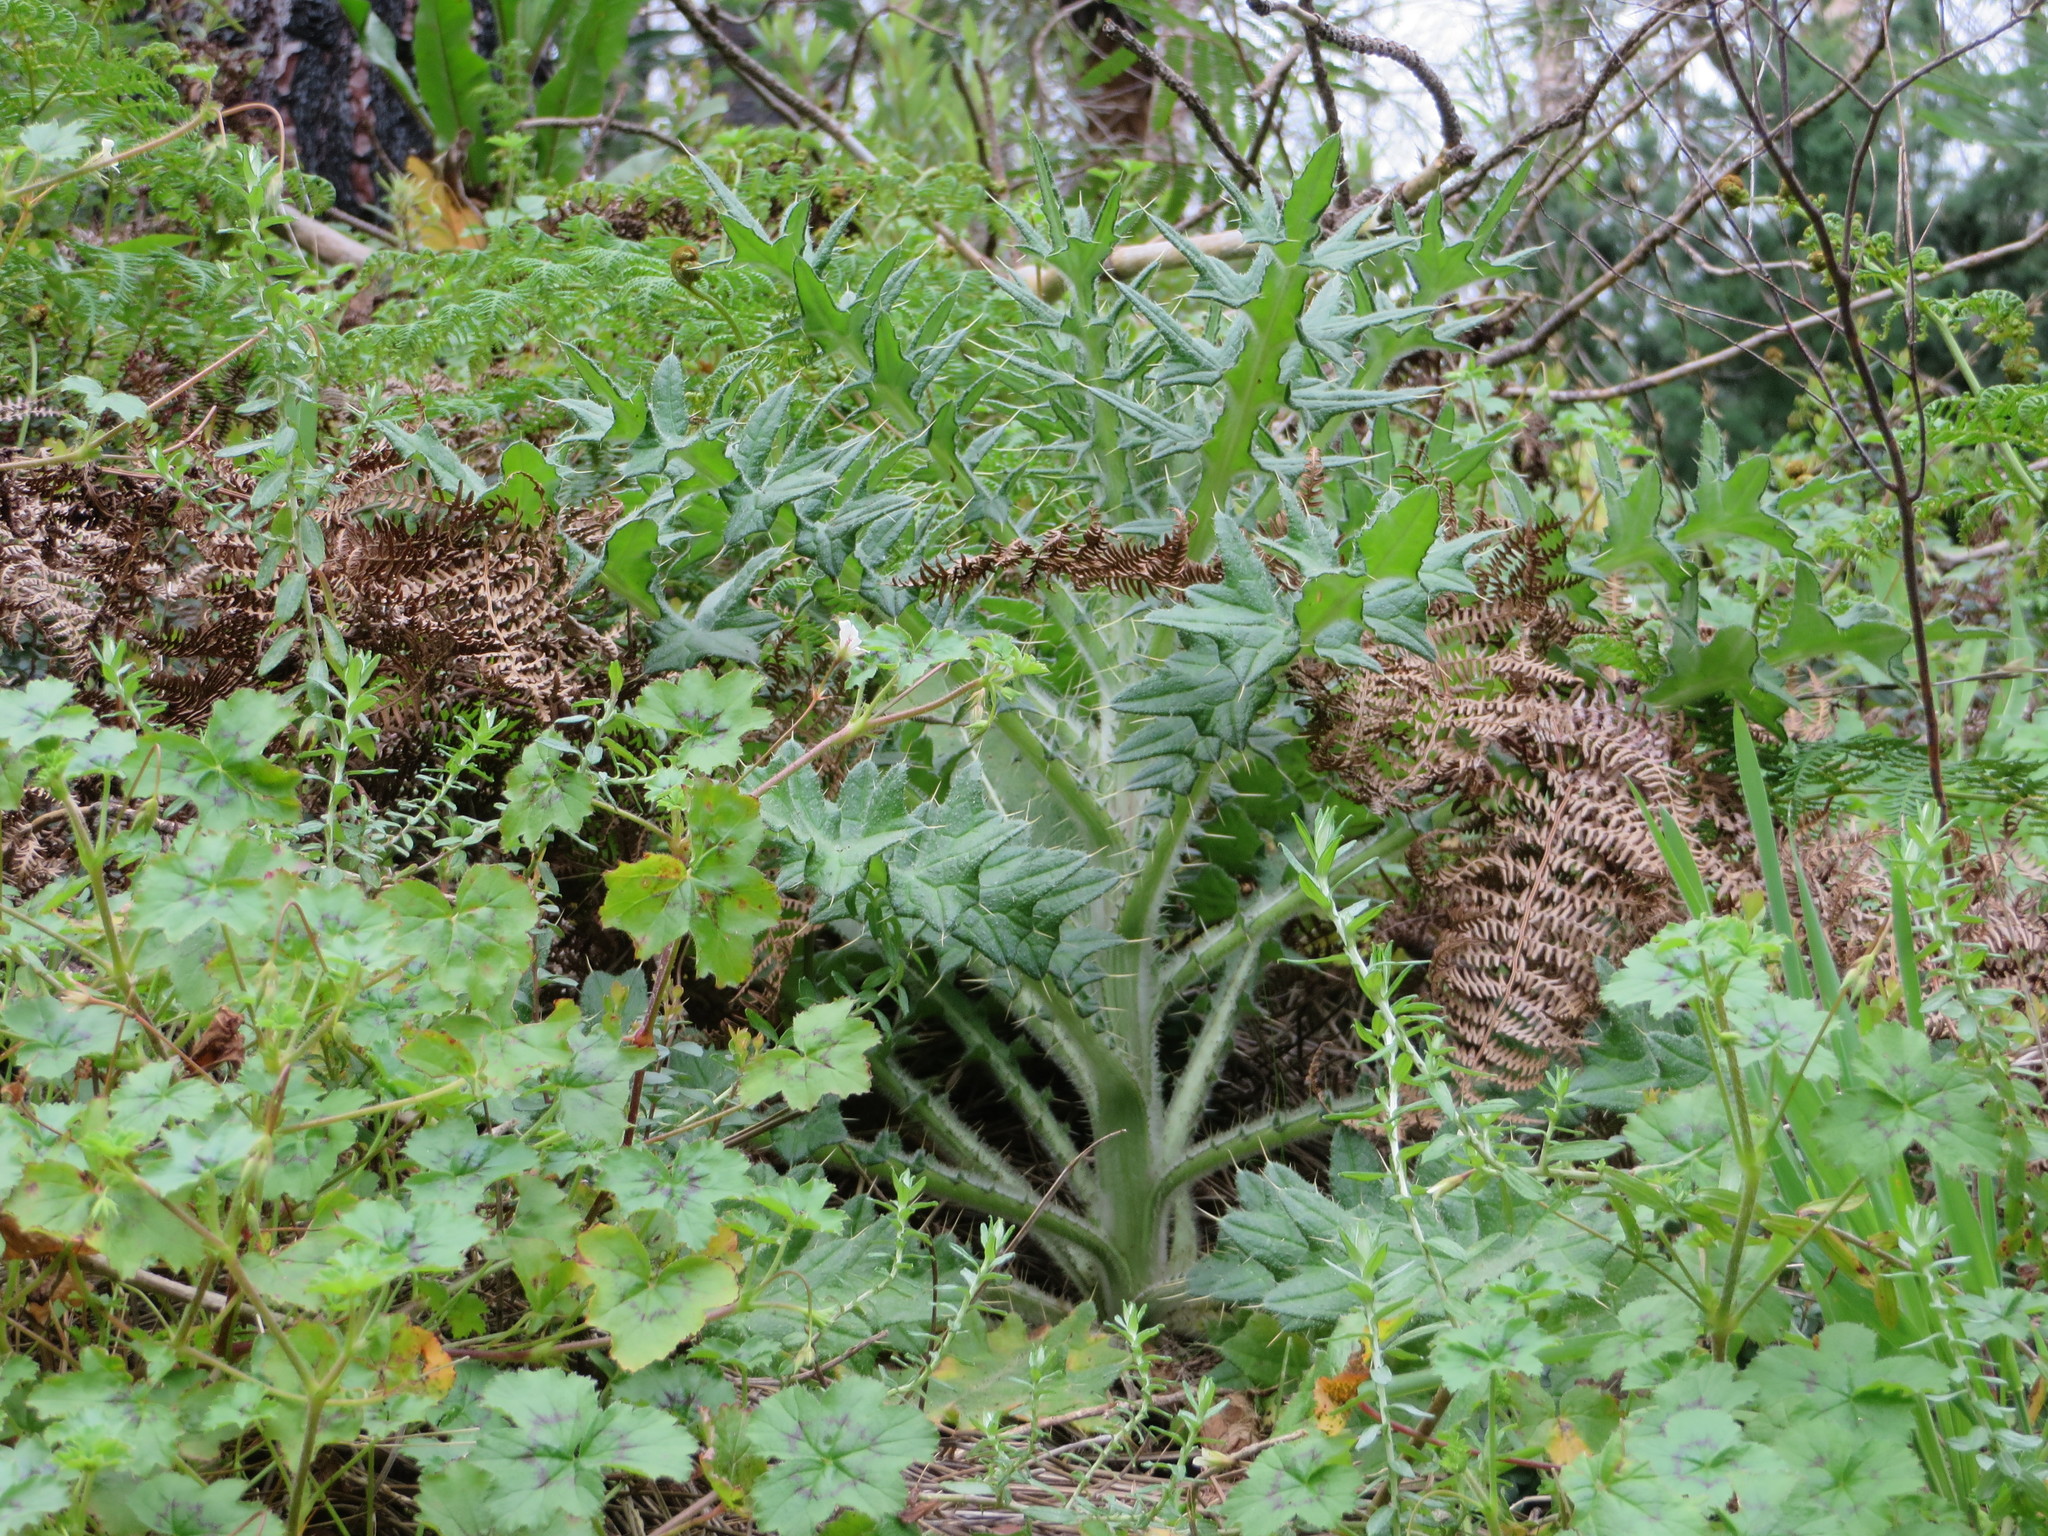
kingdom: Plantae
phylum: Tracheophyta
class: Magnoliopsida
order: Asterales
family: Asteraceae
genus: Cirsium
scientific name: Cirsium vulgare
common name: Bull thistle
